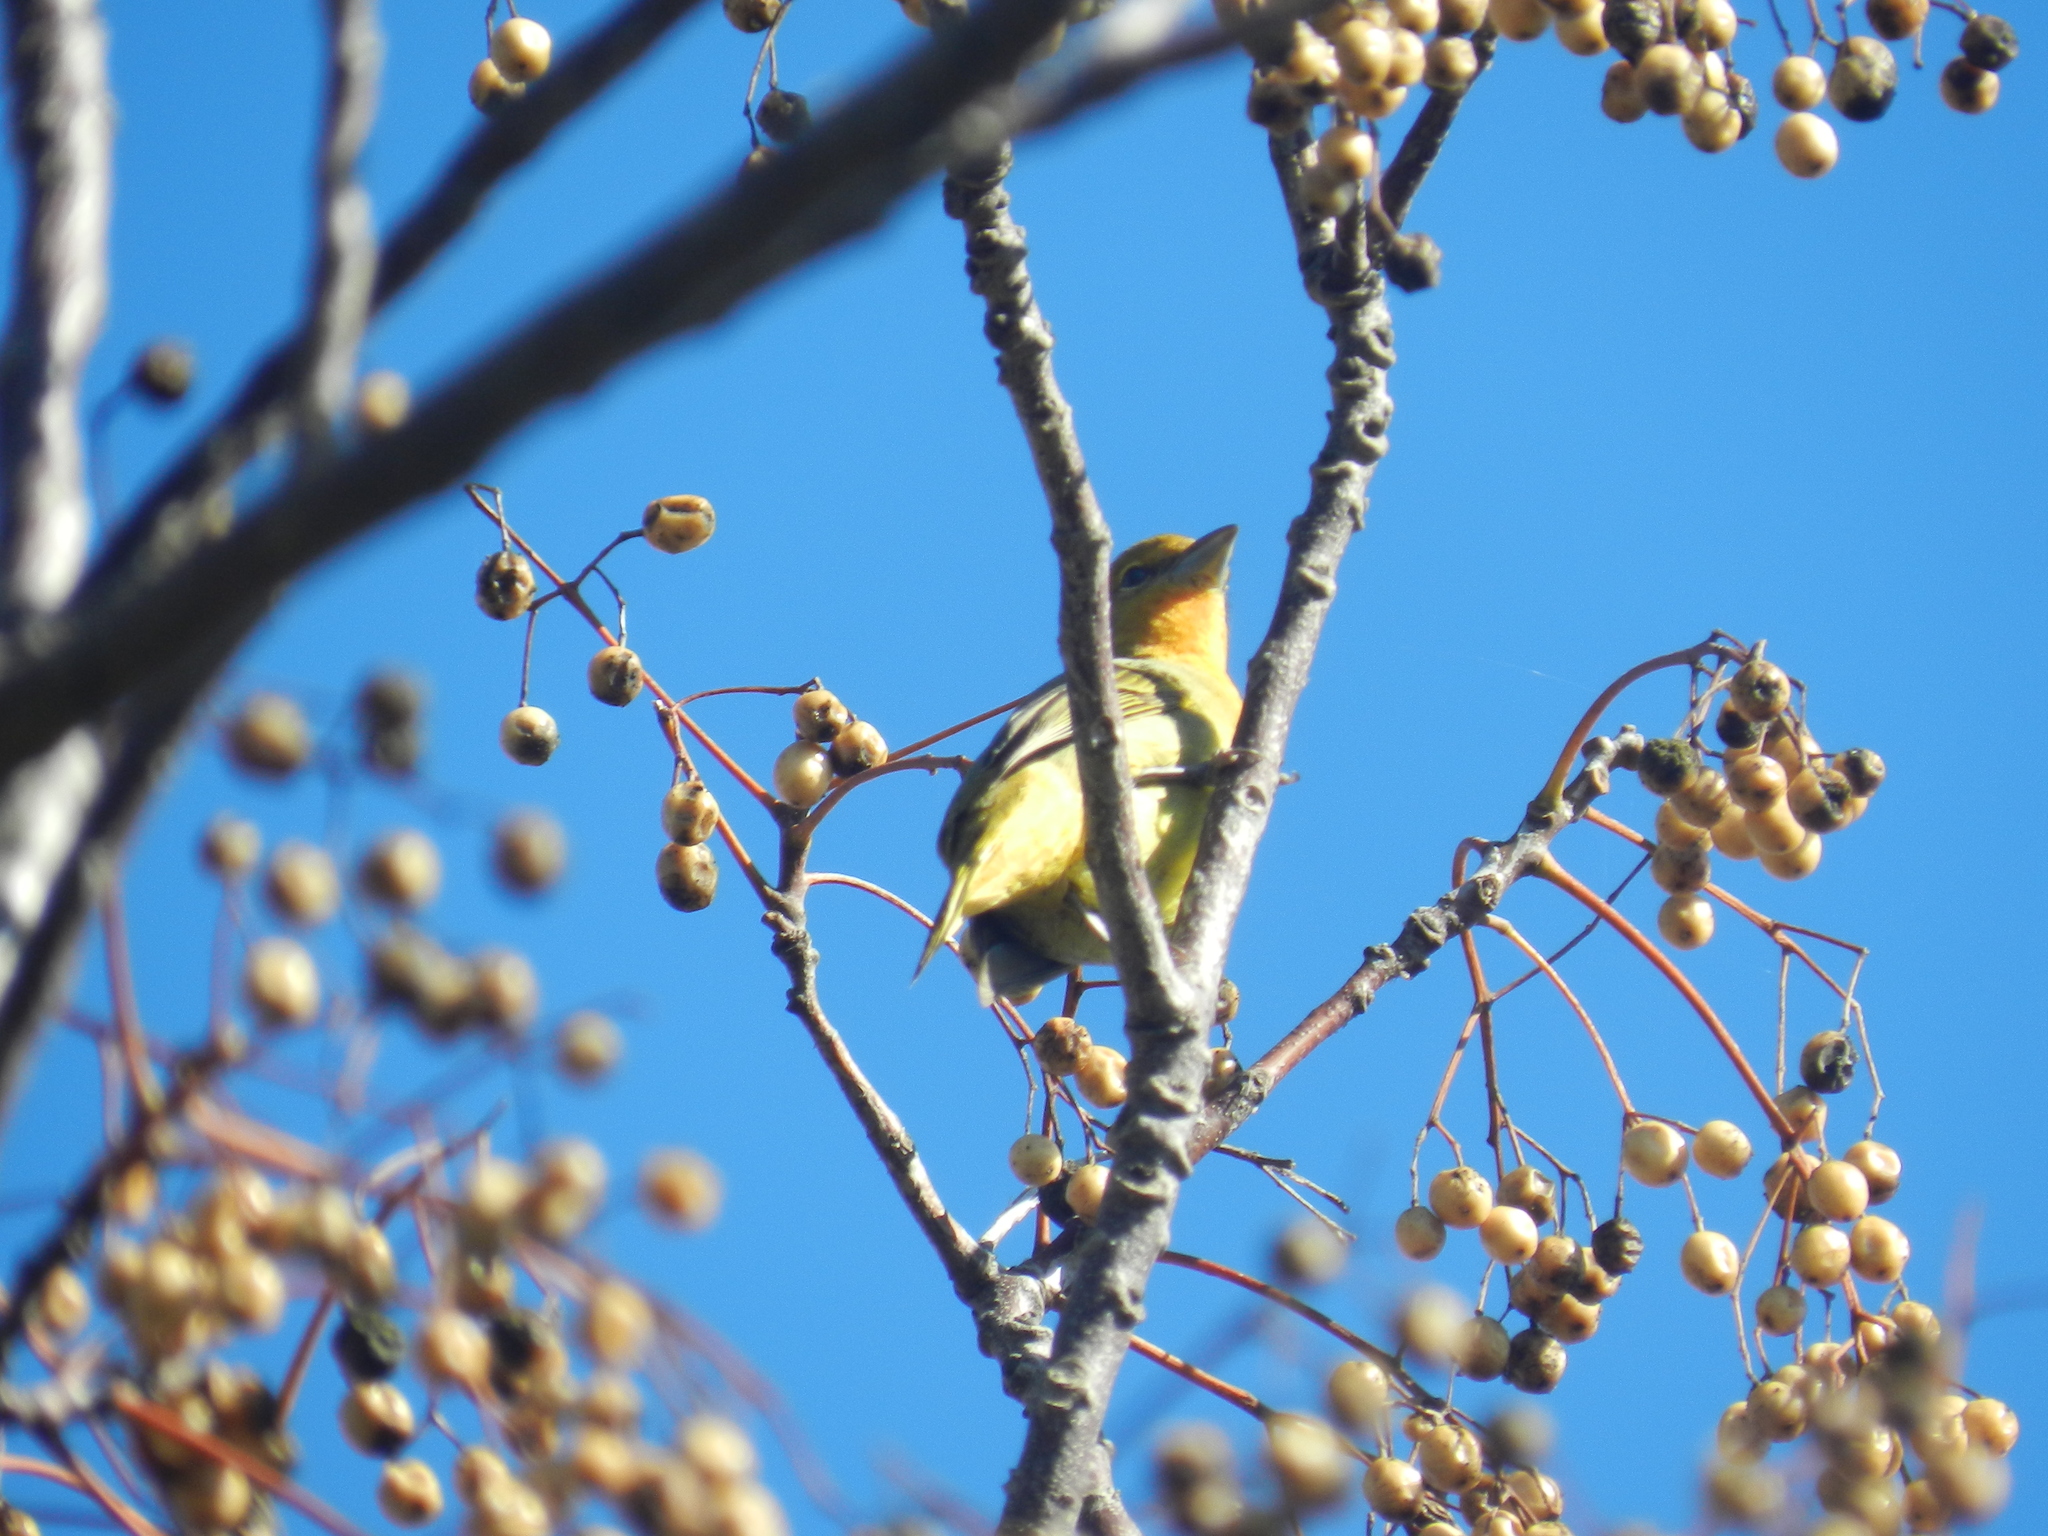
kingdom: Animalia
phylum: Chordata
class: Aves
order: Passeriformes
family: Cardinalidae
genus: Piranga
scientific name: Piranga flava
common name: Red tanager
